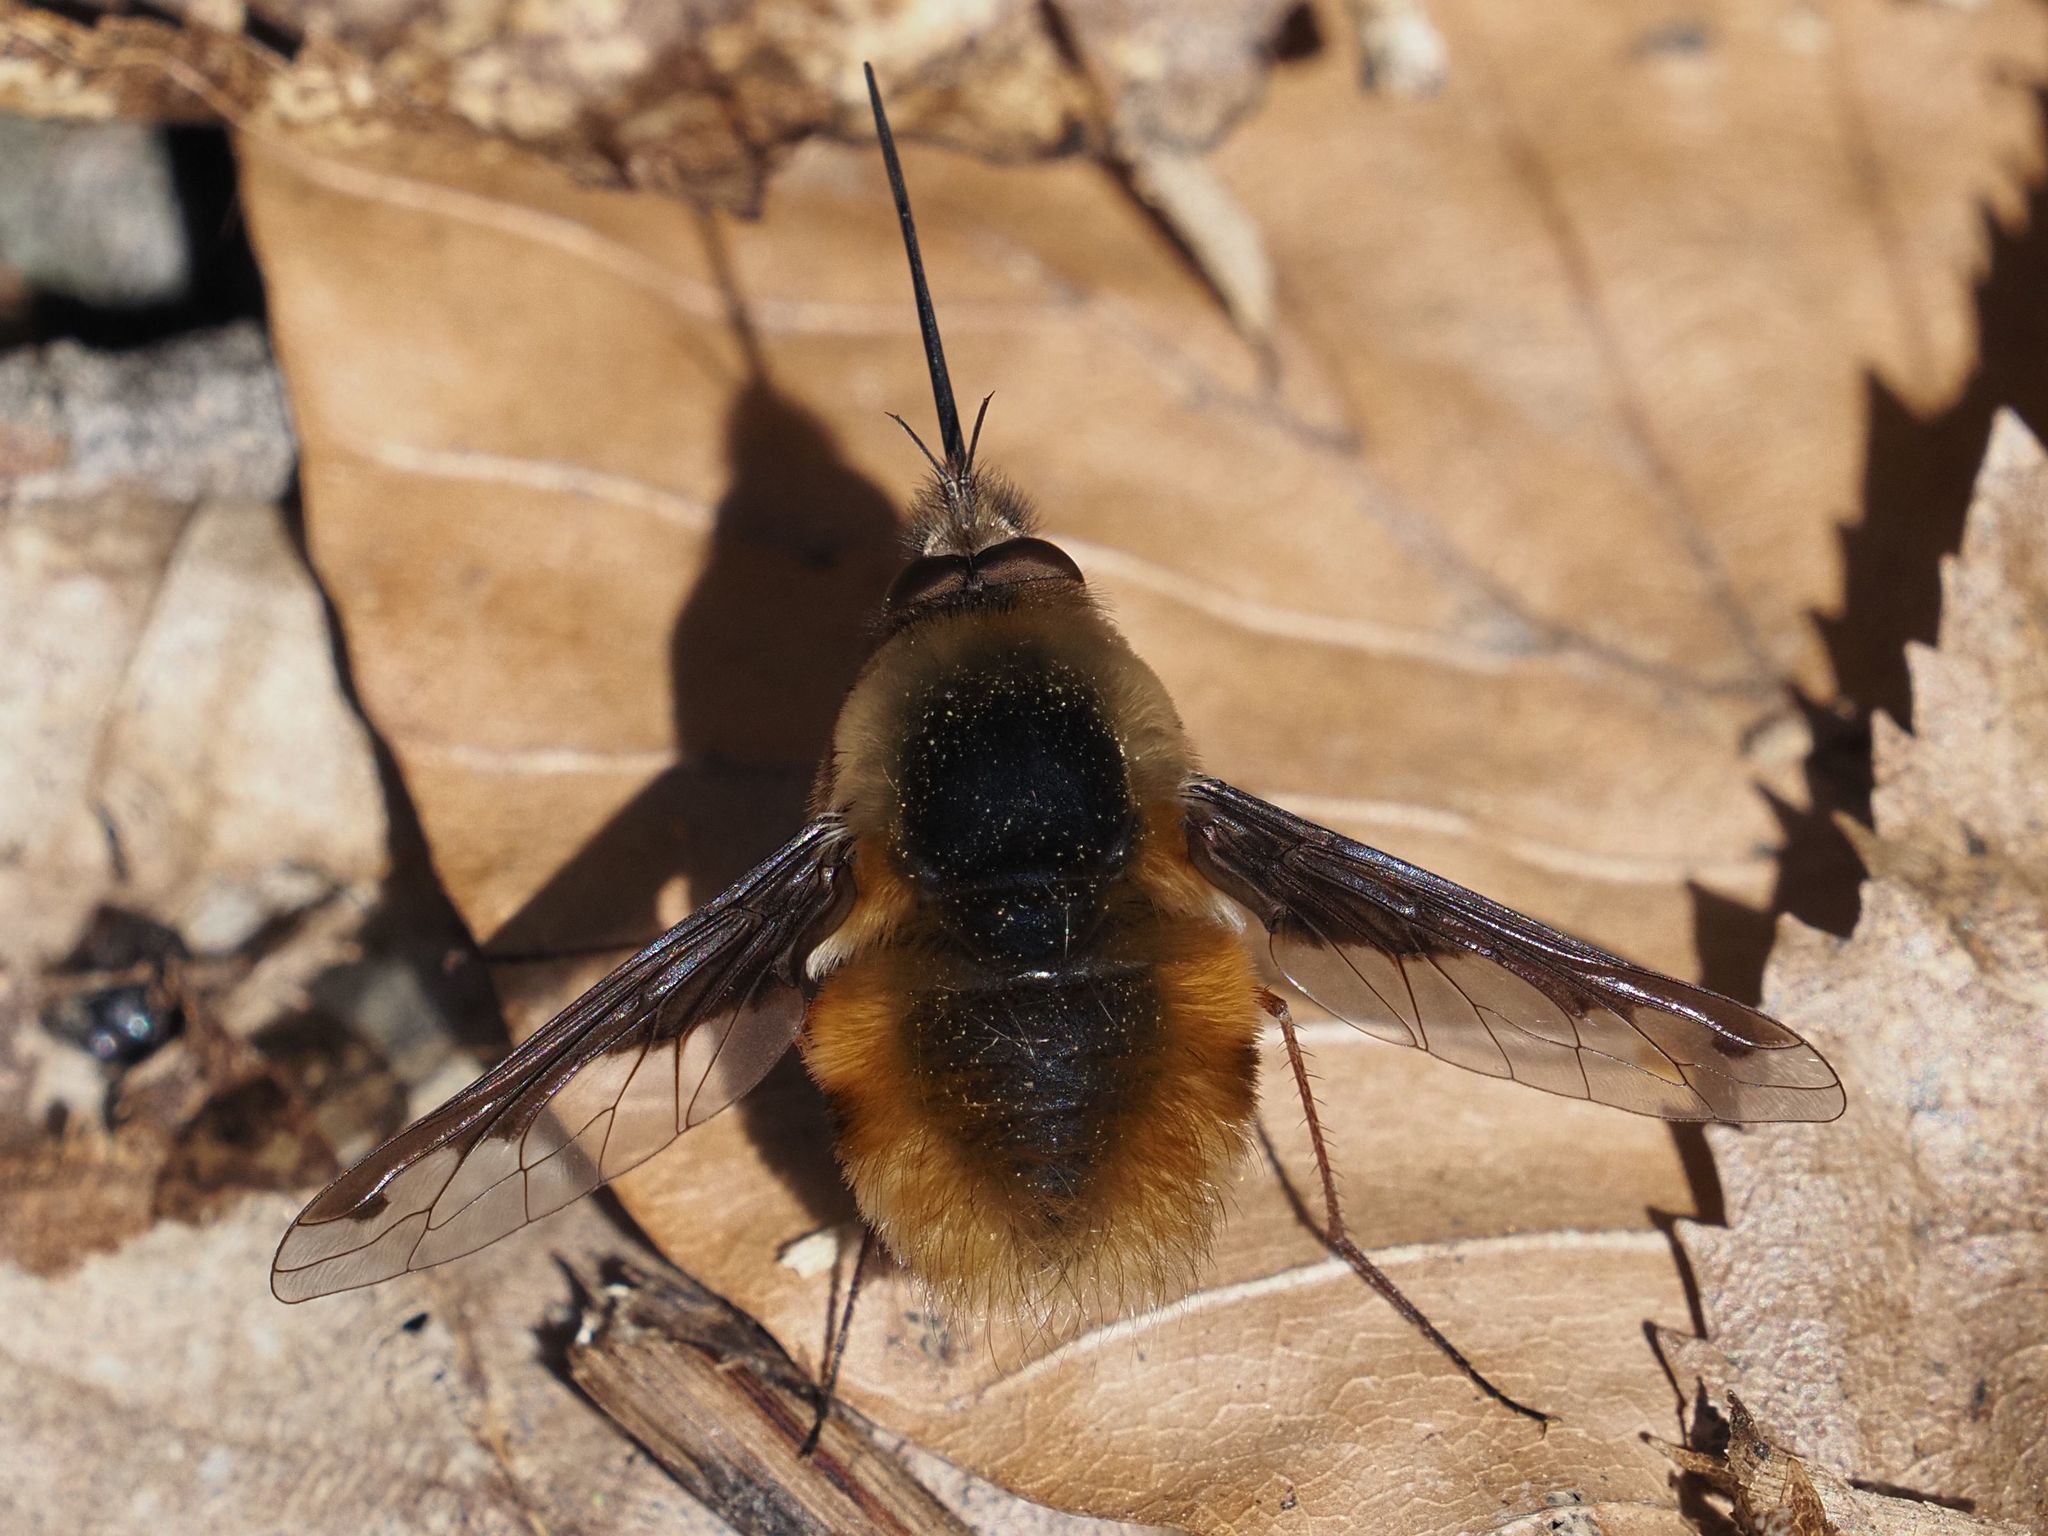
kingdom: Animalia
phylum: Arthropoda
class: Insecta
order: Diptera
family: Bombyliidae
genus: Bombylius
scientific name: Bombylius major
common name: Bee fly
